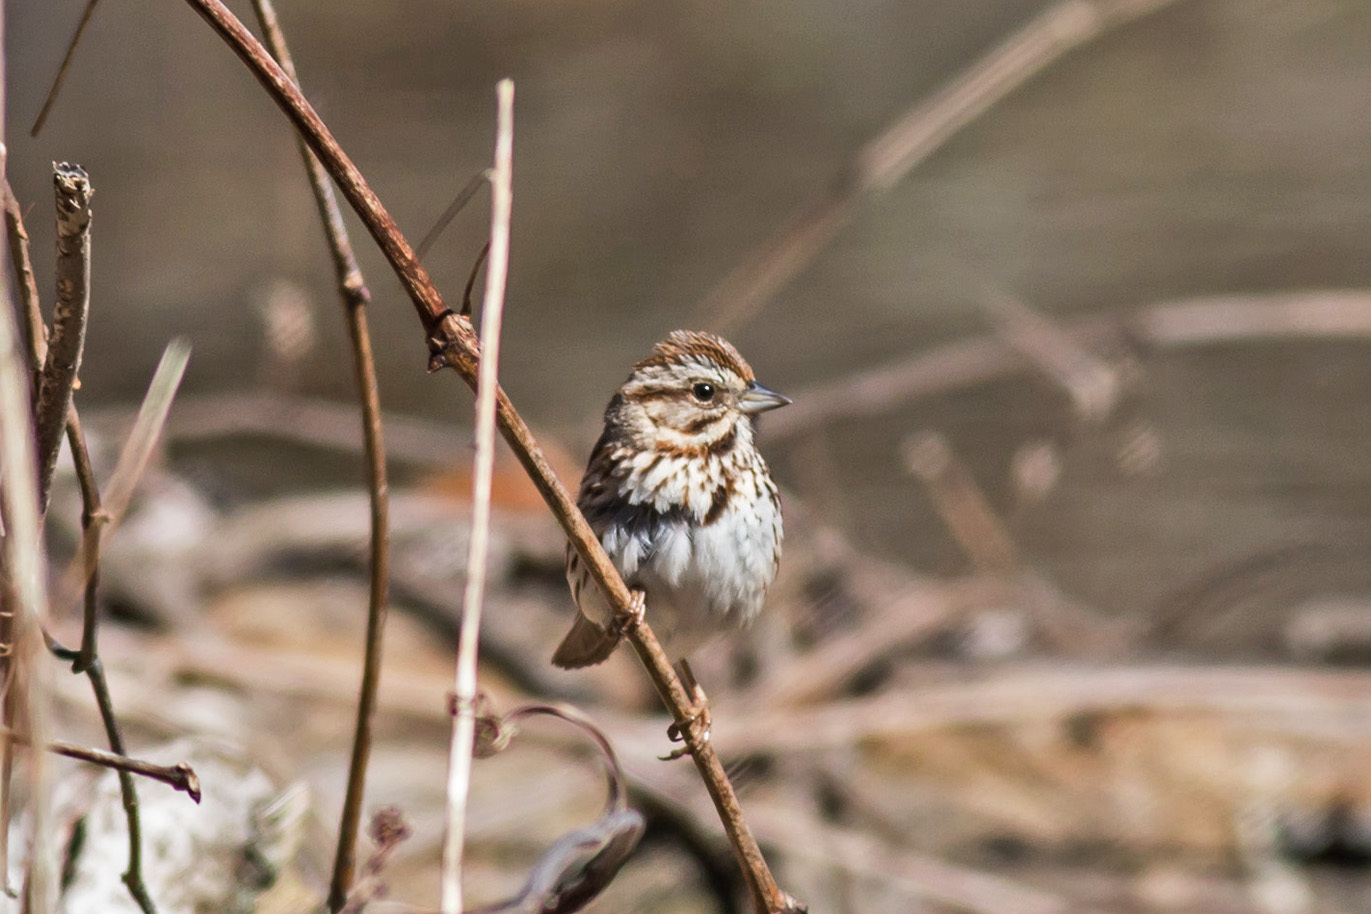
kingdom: Animalia
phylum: Chordata
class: Aves
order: Passeriformes
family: Passerellidae
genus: Melospiza
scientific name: Melospiza melodia
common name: Song sparrow
